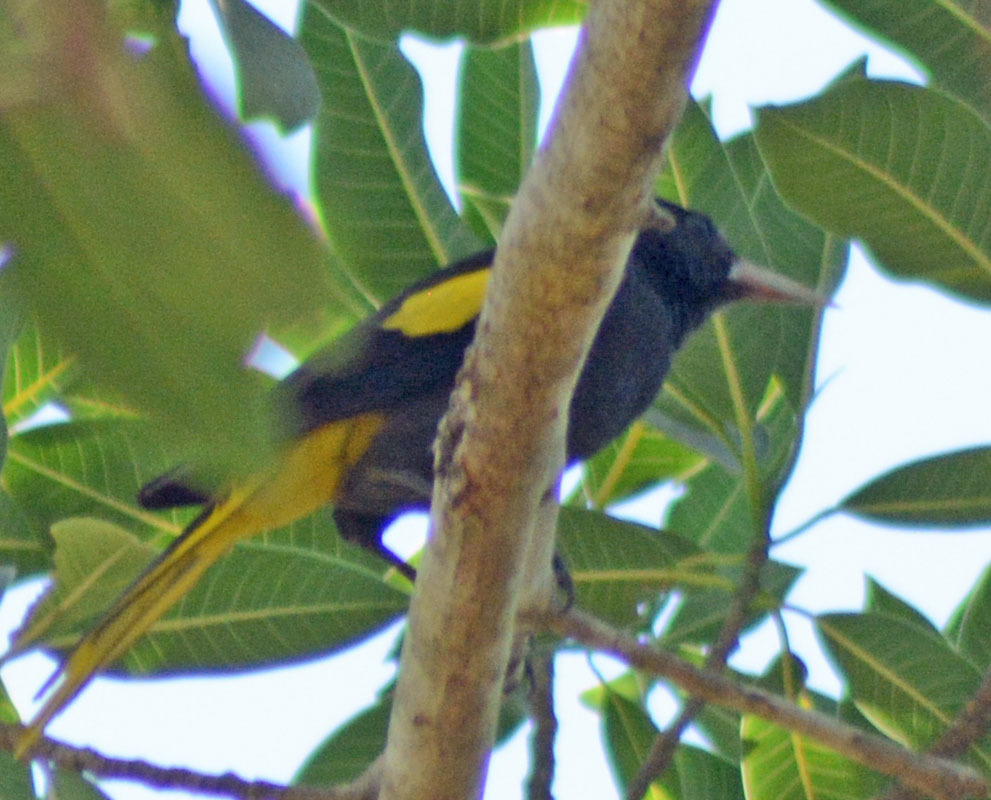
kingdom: Animalia
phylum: Chordata
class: Aves
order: Passeriformes
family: Icteridae
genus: Cacicus
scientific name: Cacicus melanicterus
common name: Yellow-winged cacique
